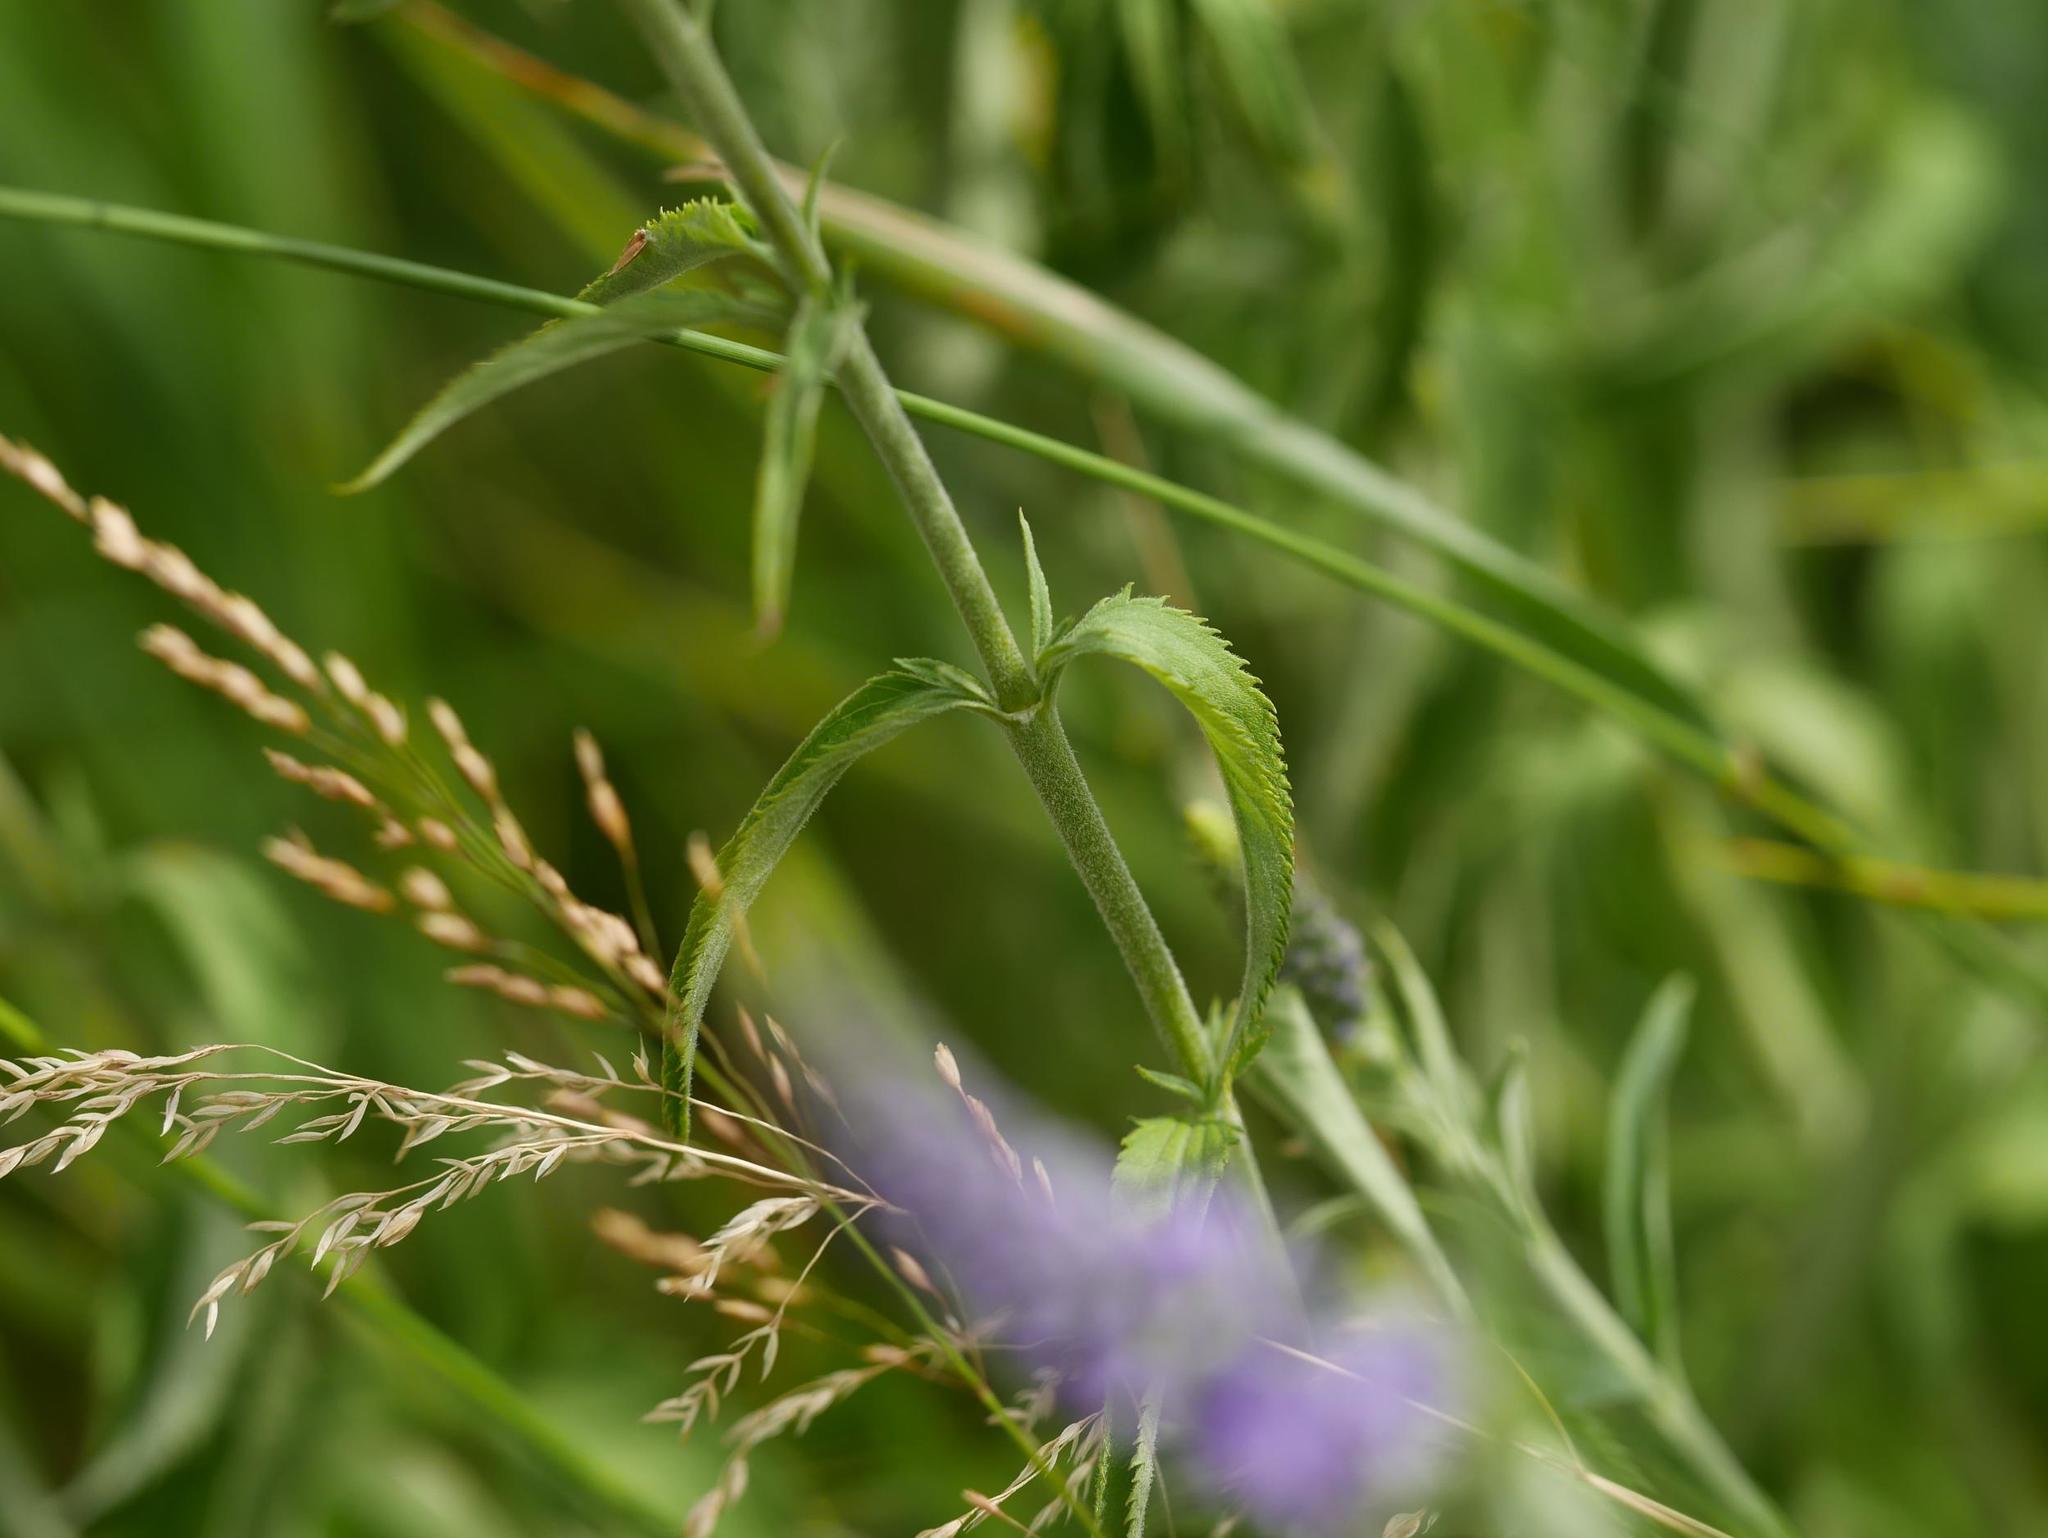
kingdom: Plantae
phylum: Tracheophyta
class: Magnoliopsida
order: Lamiales
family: Plantaginaceae
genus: Veronica
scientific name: Veronica longifolia
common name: Garden speedwell
